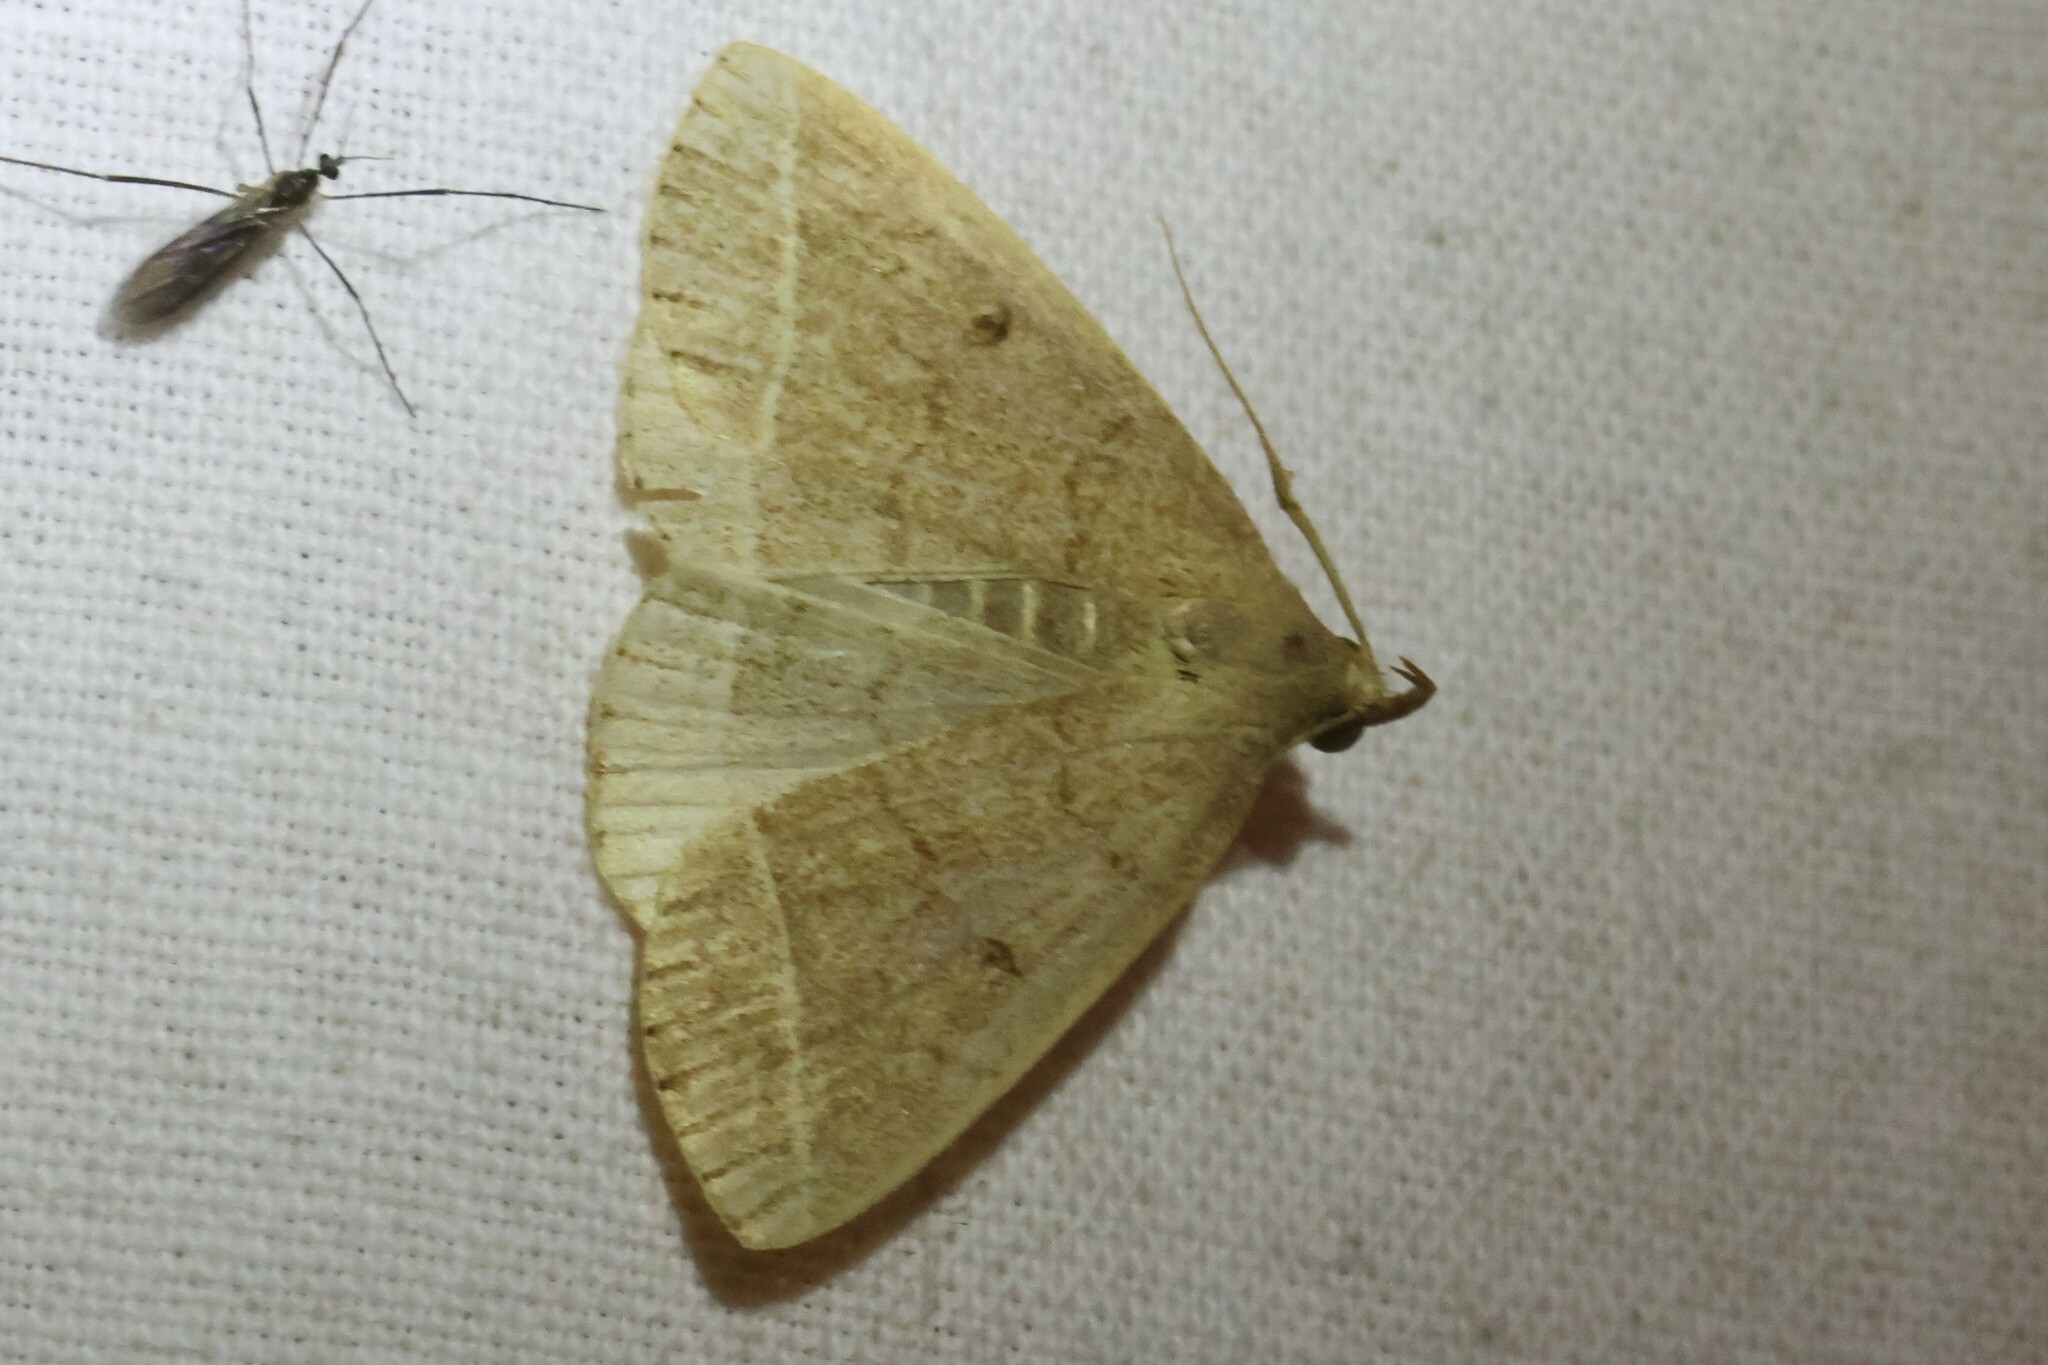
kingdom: Animalia
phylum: Arthropoda
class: Insecta
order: Lepidoptera
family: Erebidae
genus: Zanclognatha
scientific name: Zanclognatha marcidilinea
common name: Yellowish fan-foot
